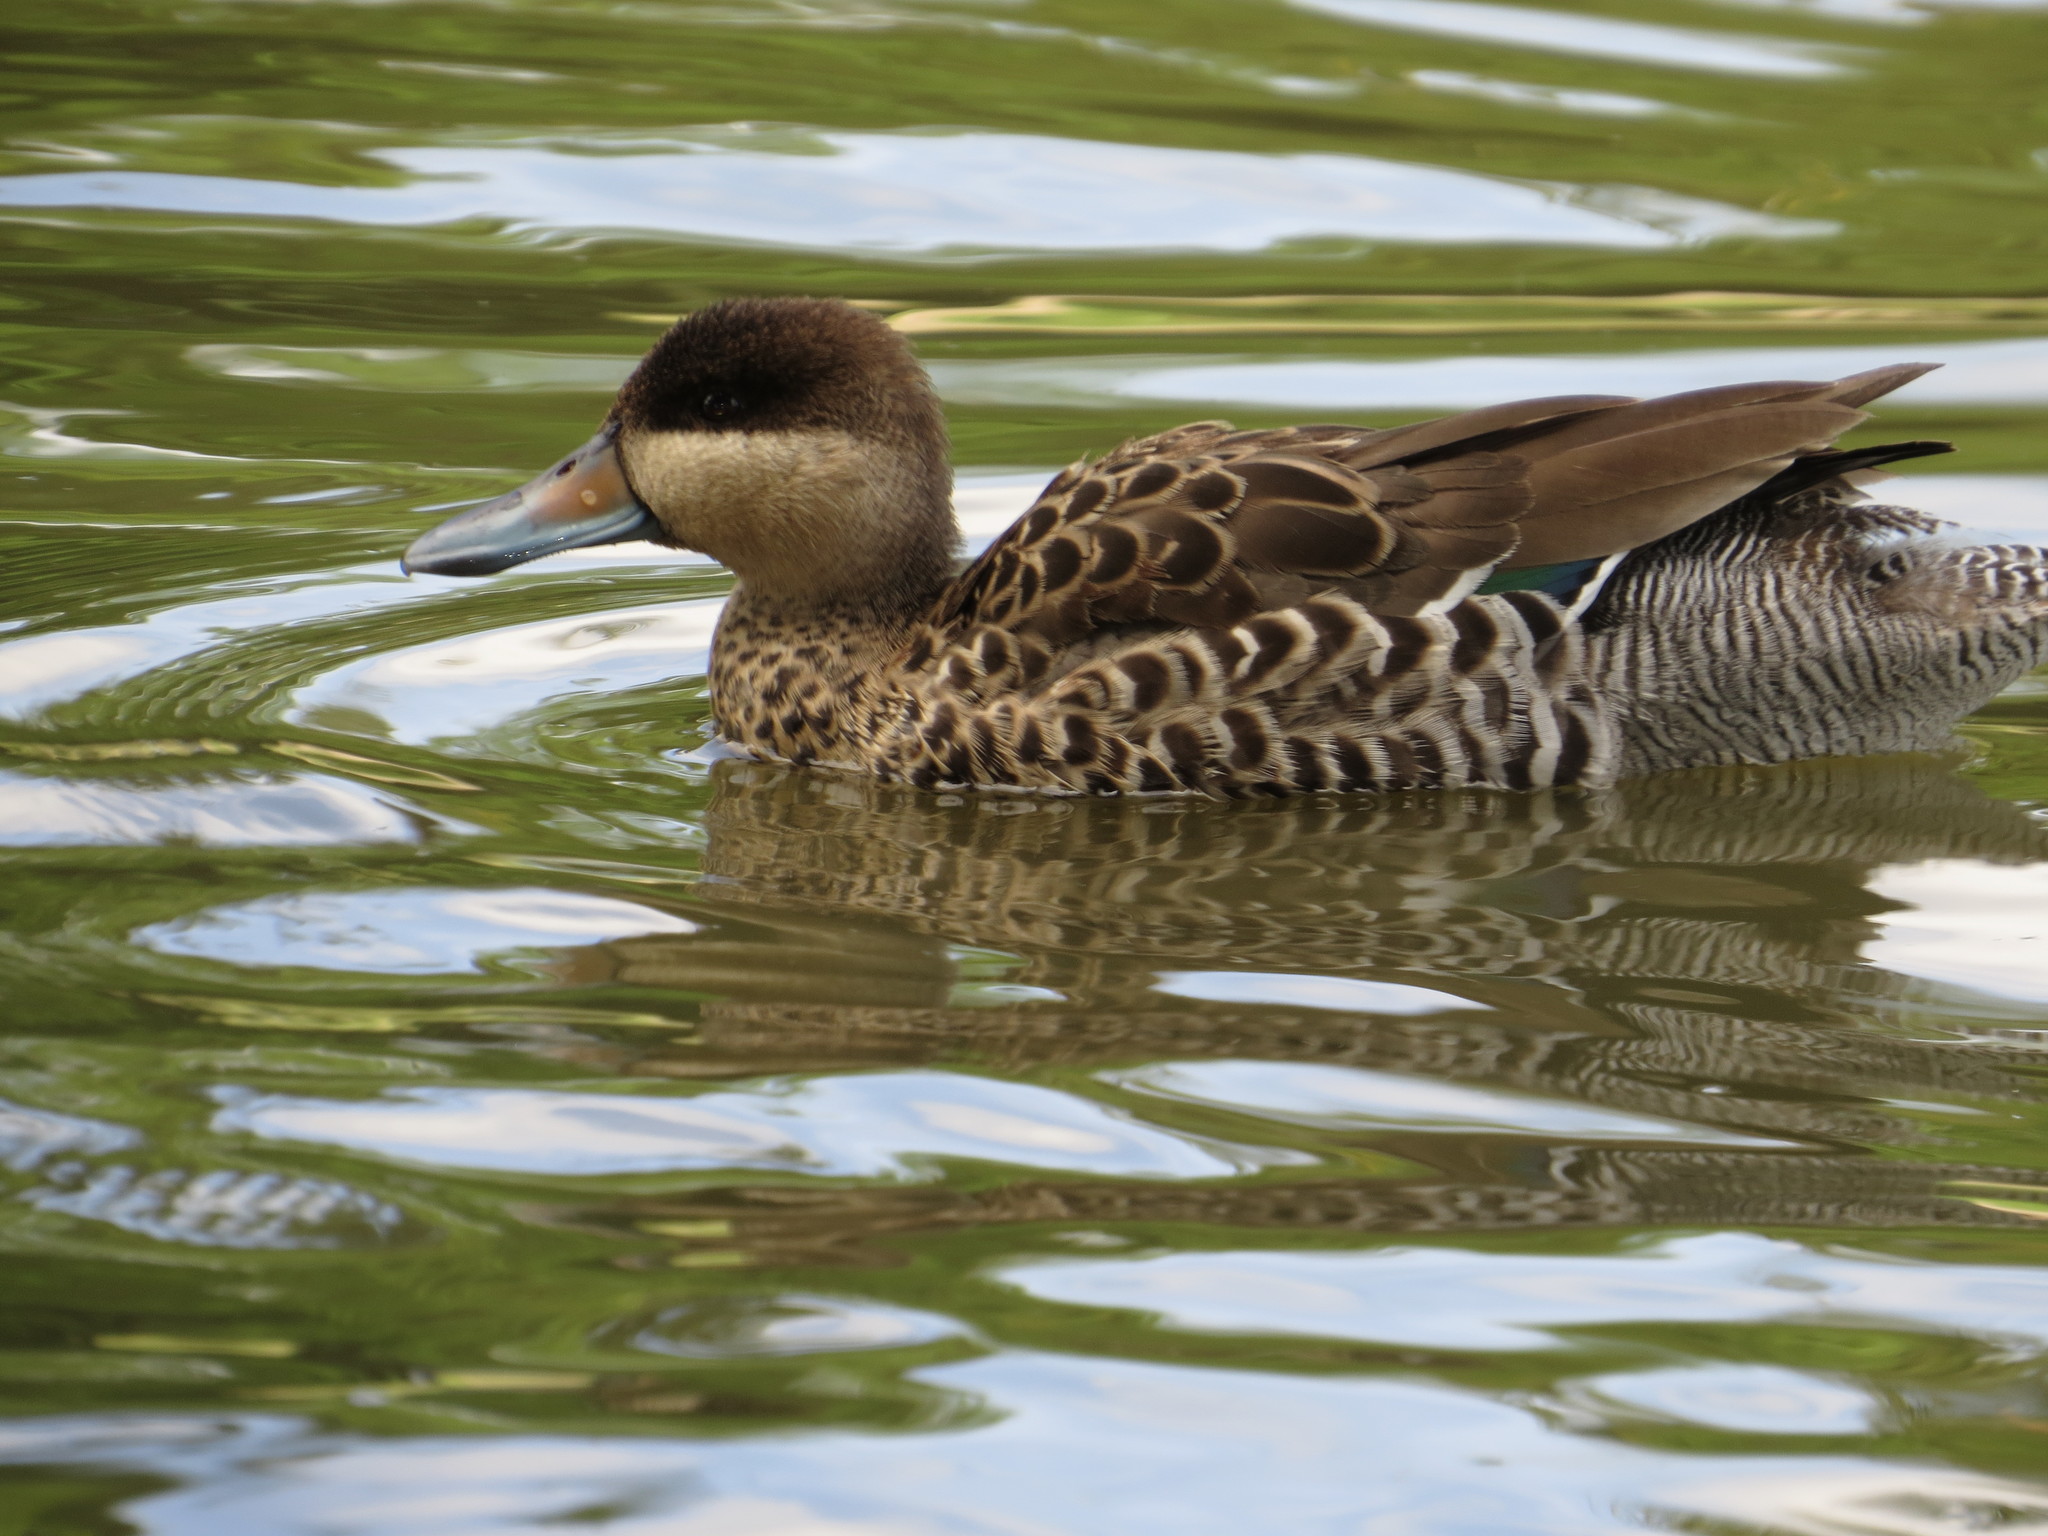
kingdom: Animalia
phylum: Chordata
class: Aves
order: Anseriformes
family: Anatidae
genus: Spatula
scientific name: Spatula versicolor
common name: Silver teal
